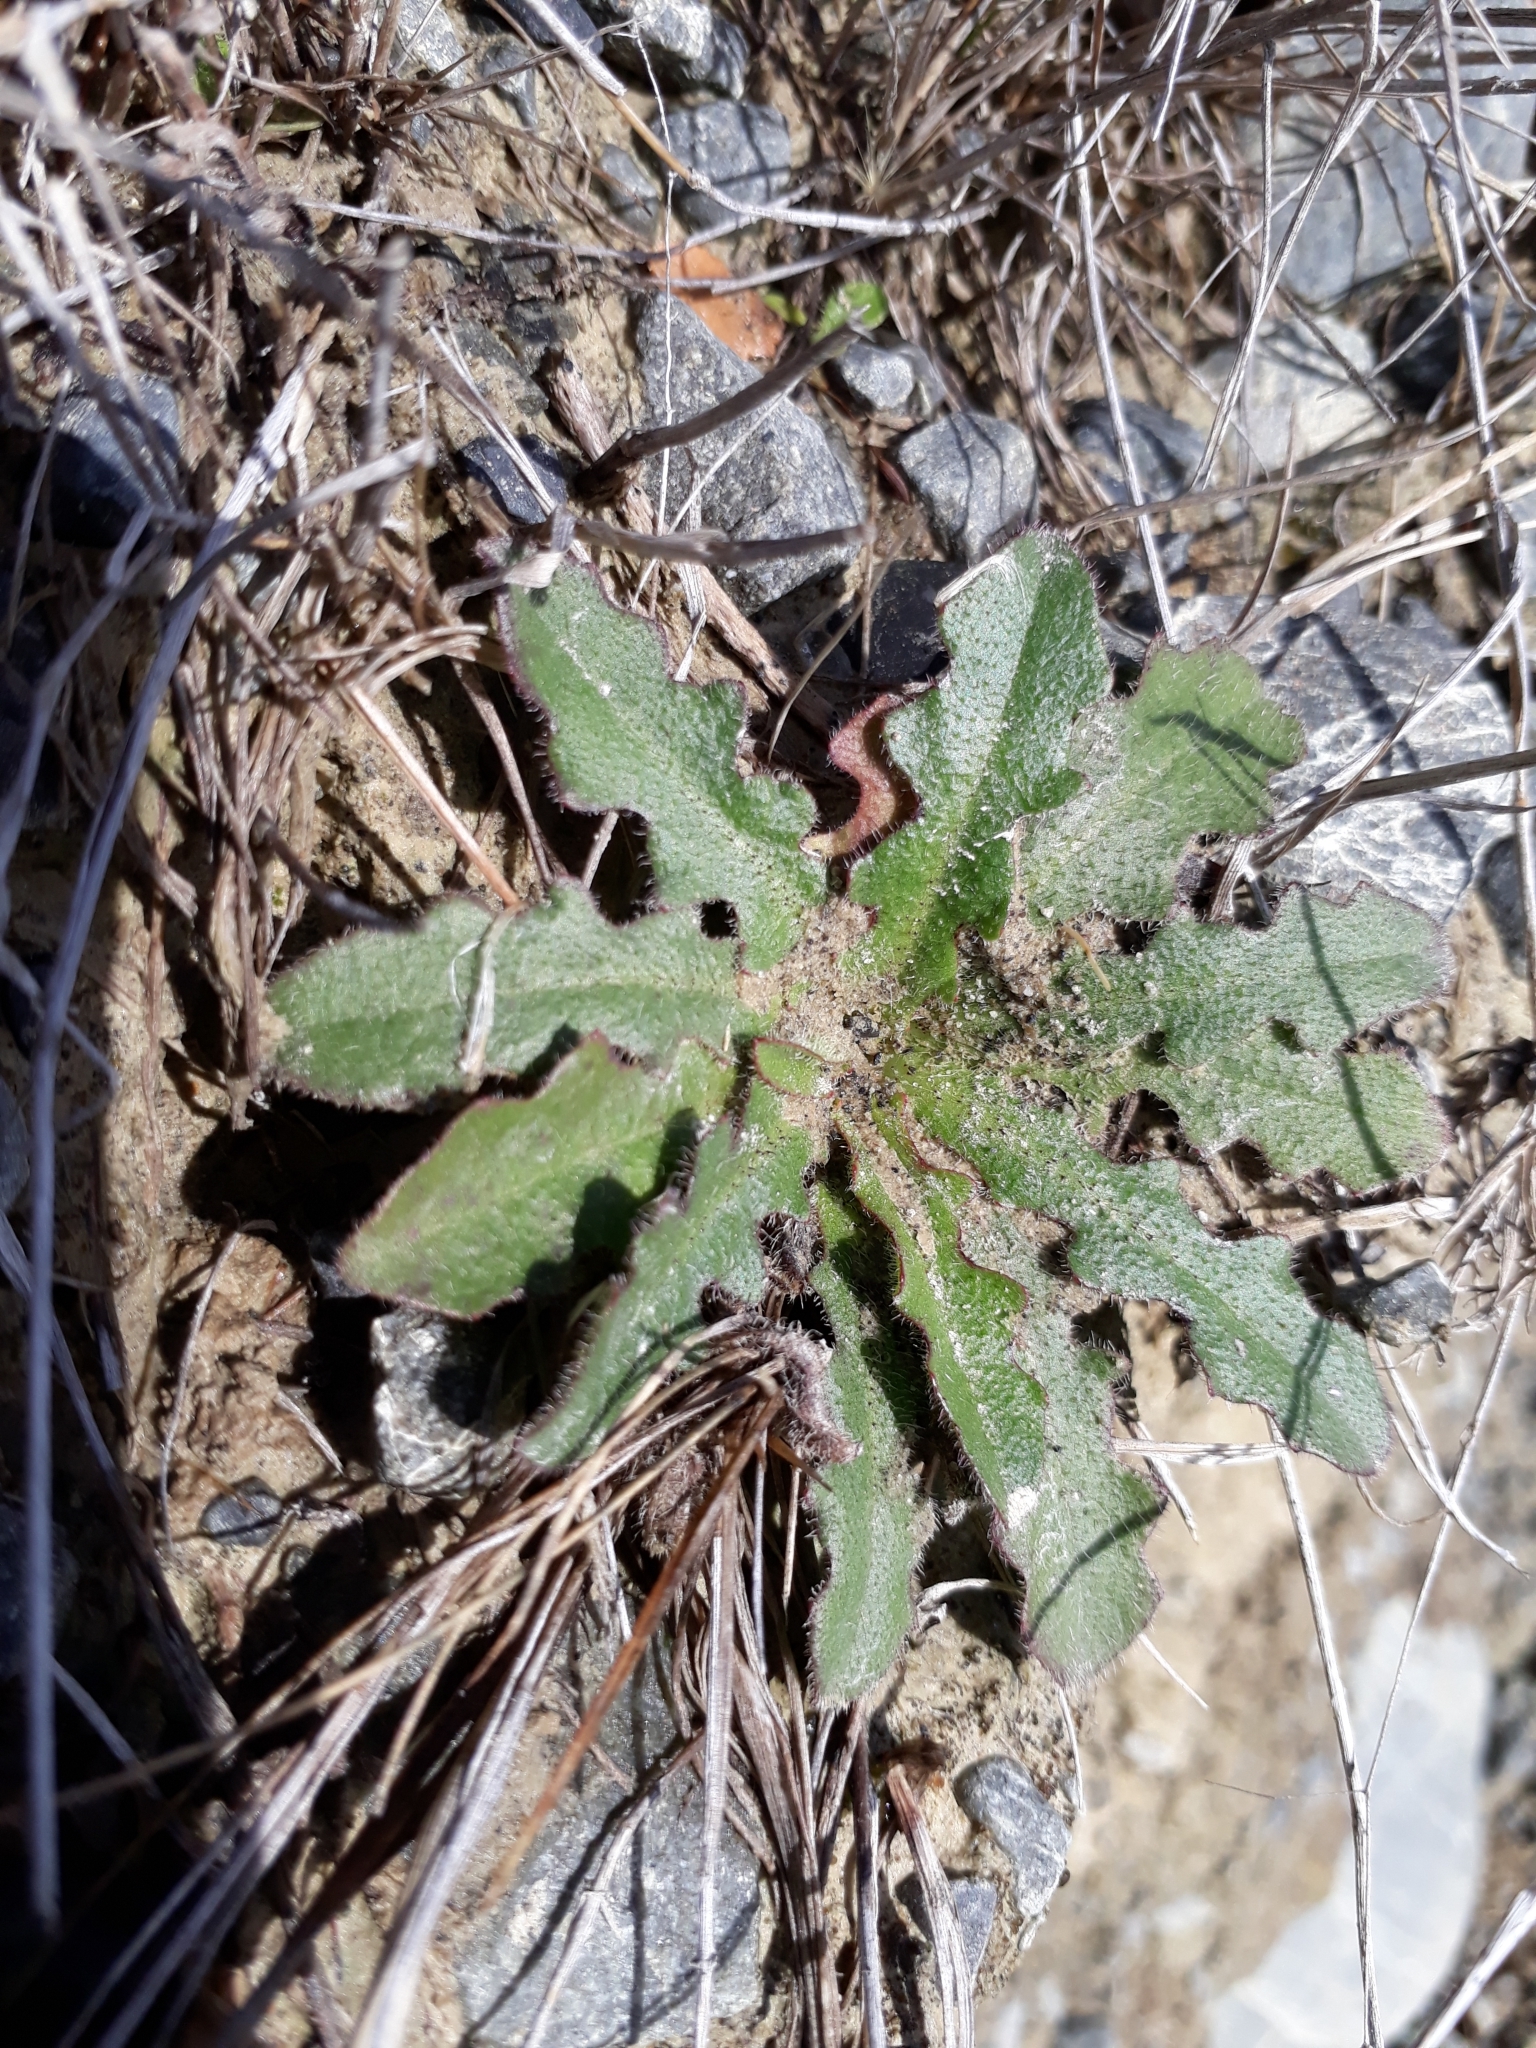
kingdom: Plantae
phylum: Tracheophyta
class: Magnoliopsida
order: Asterales
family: Asteraceae
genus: Hypochaeris
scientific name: Hypochaeris radicata
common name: Flatweed
